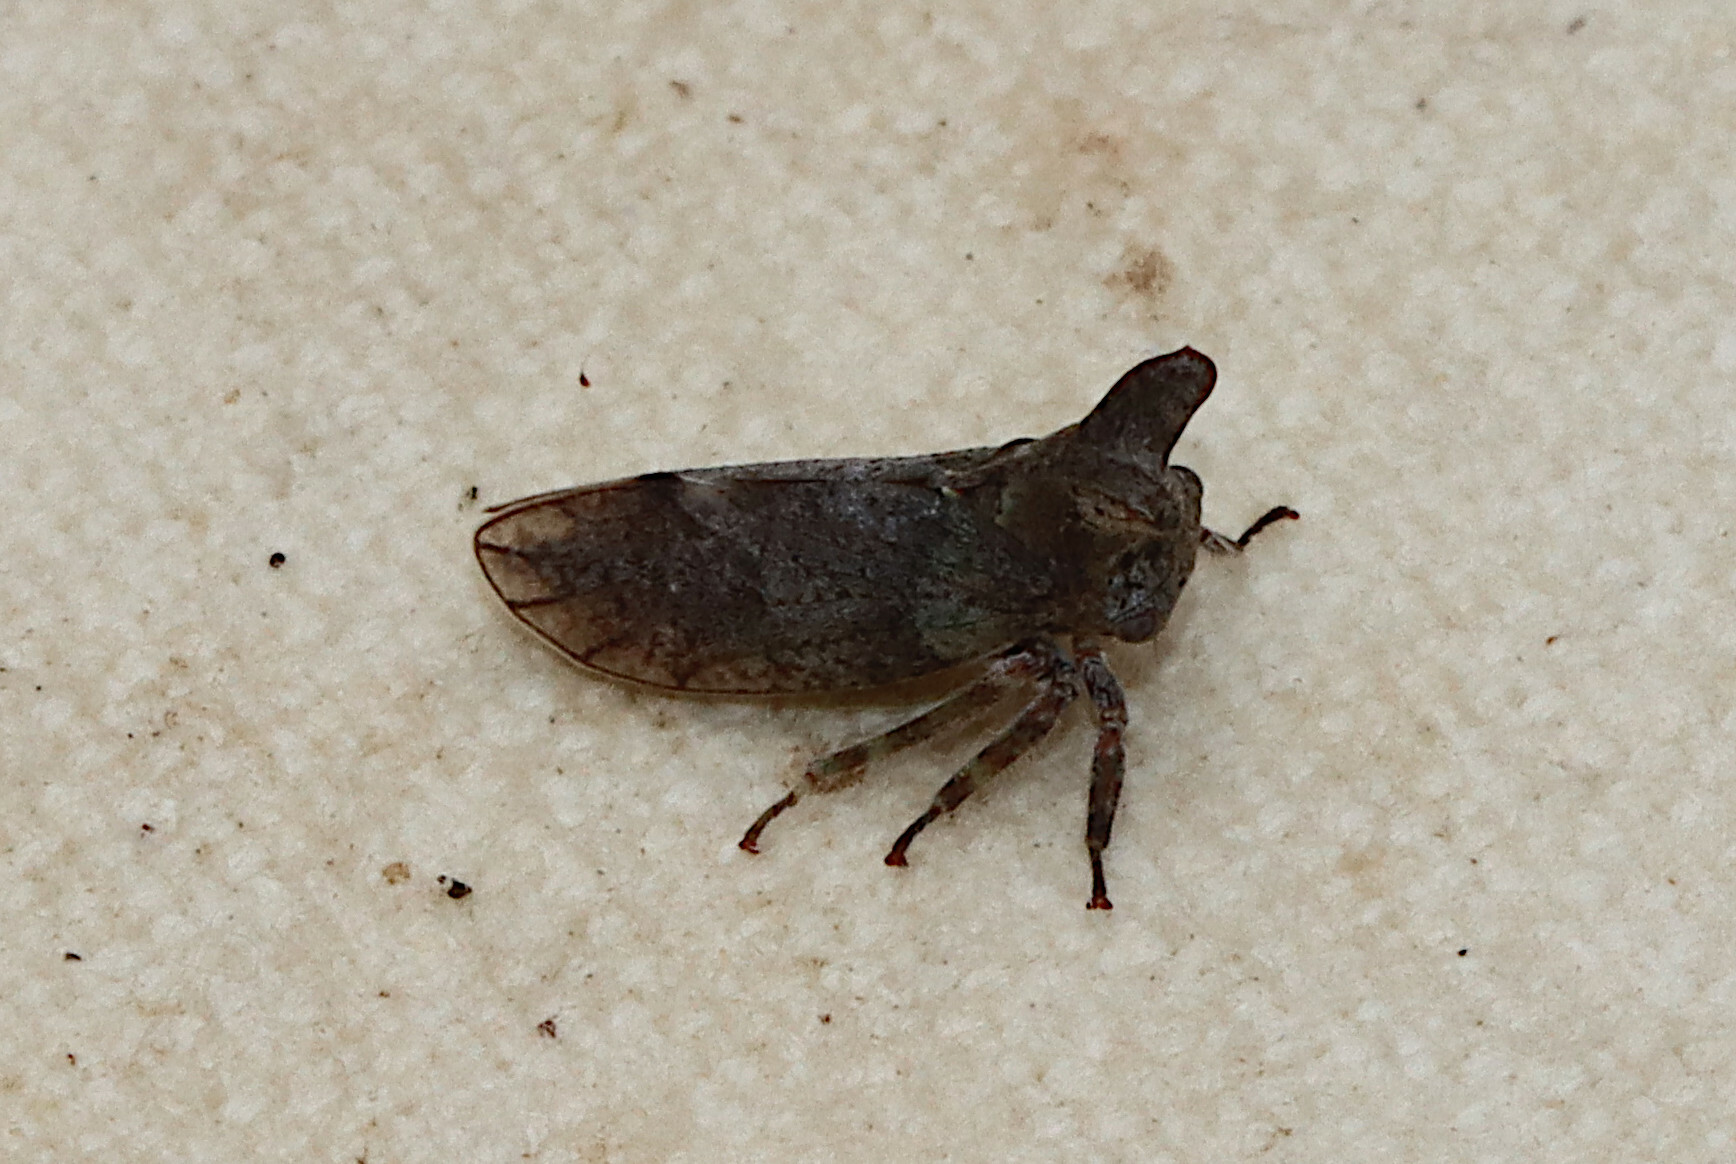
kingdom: Animalia
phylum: Arthropoda
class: Insecta
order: Hemiptera
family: Membracidae
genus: Microcentrus
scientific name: Microcentrus perdita
